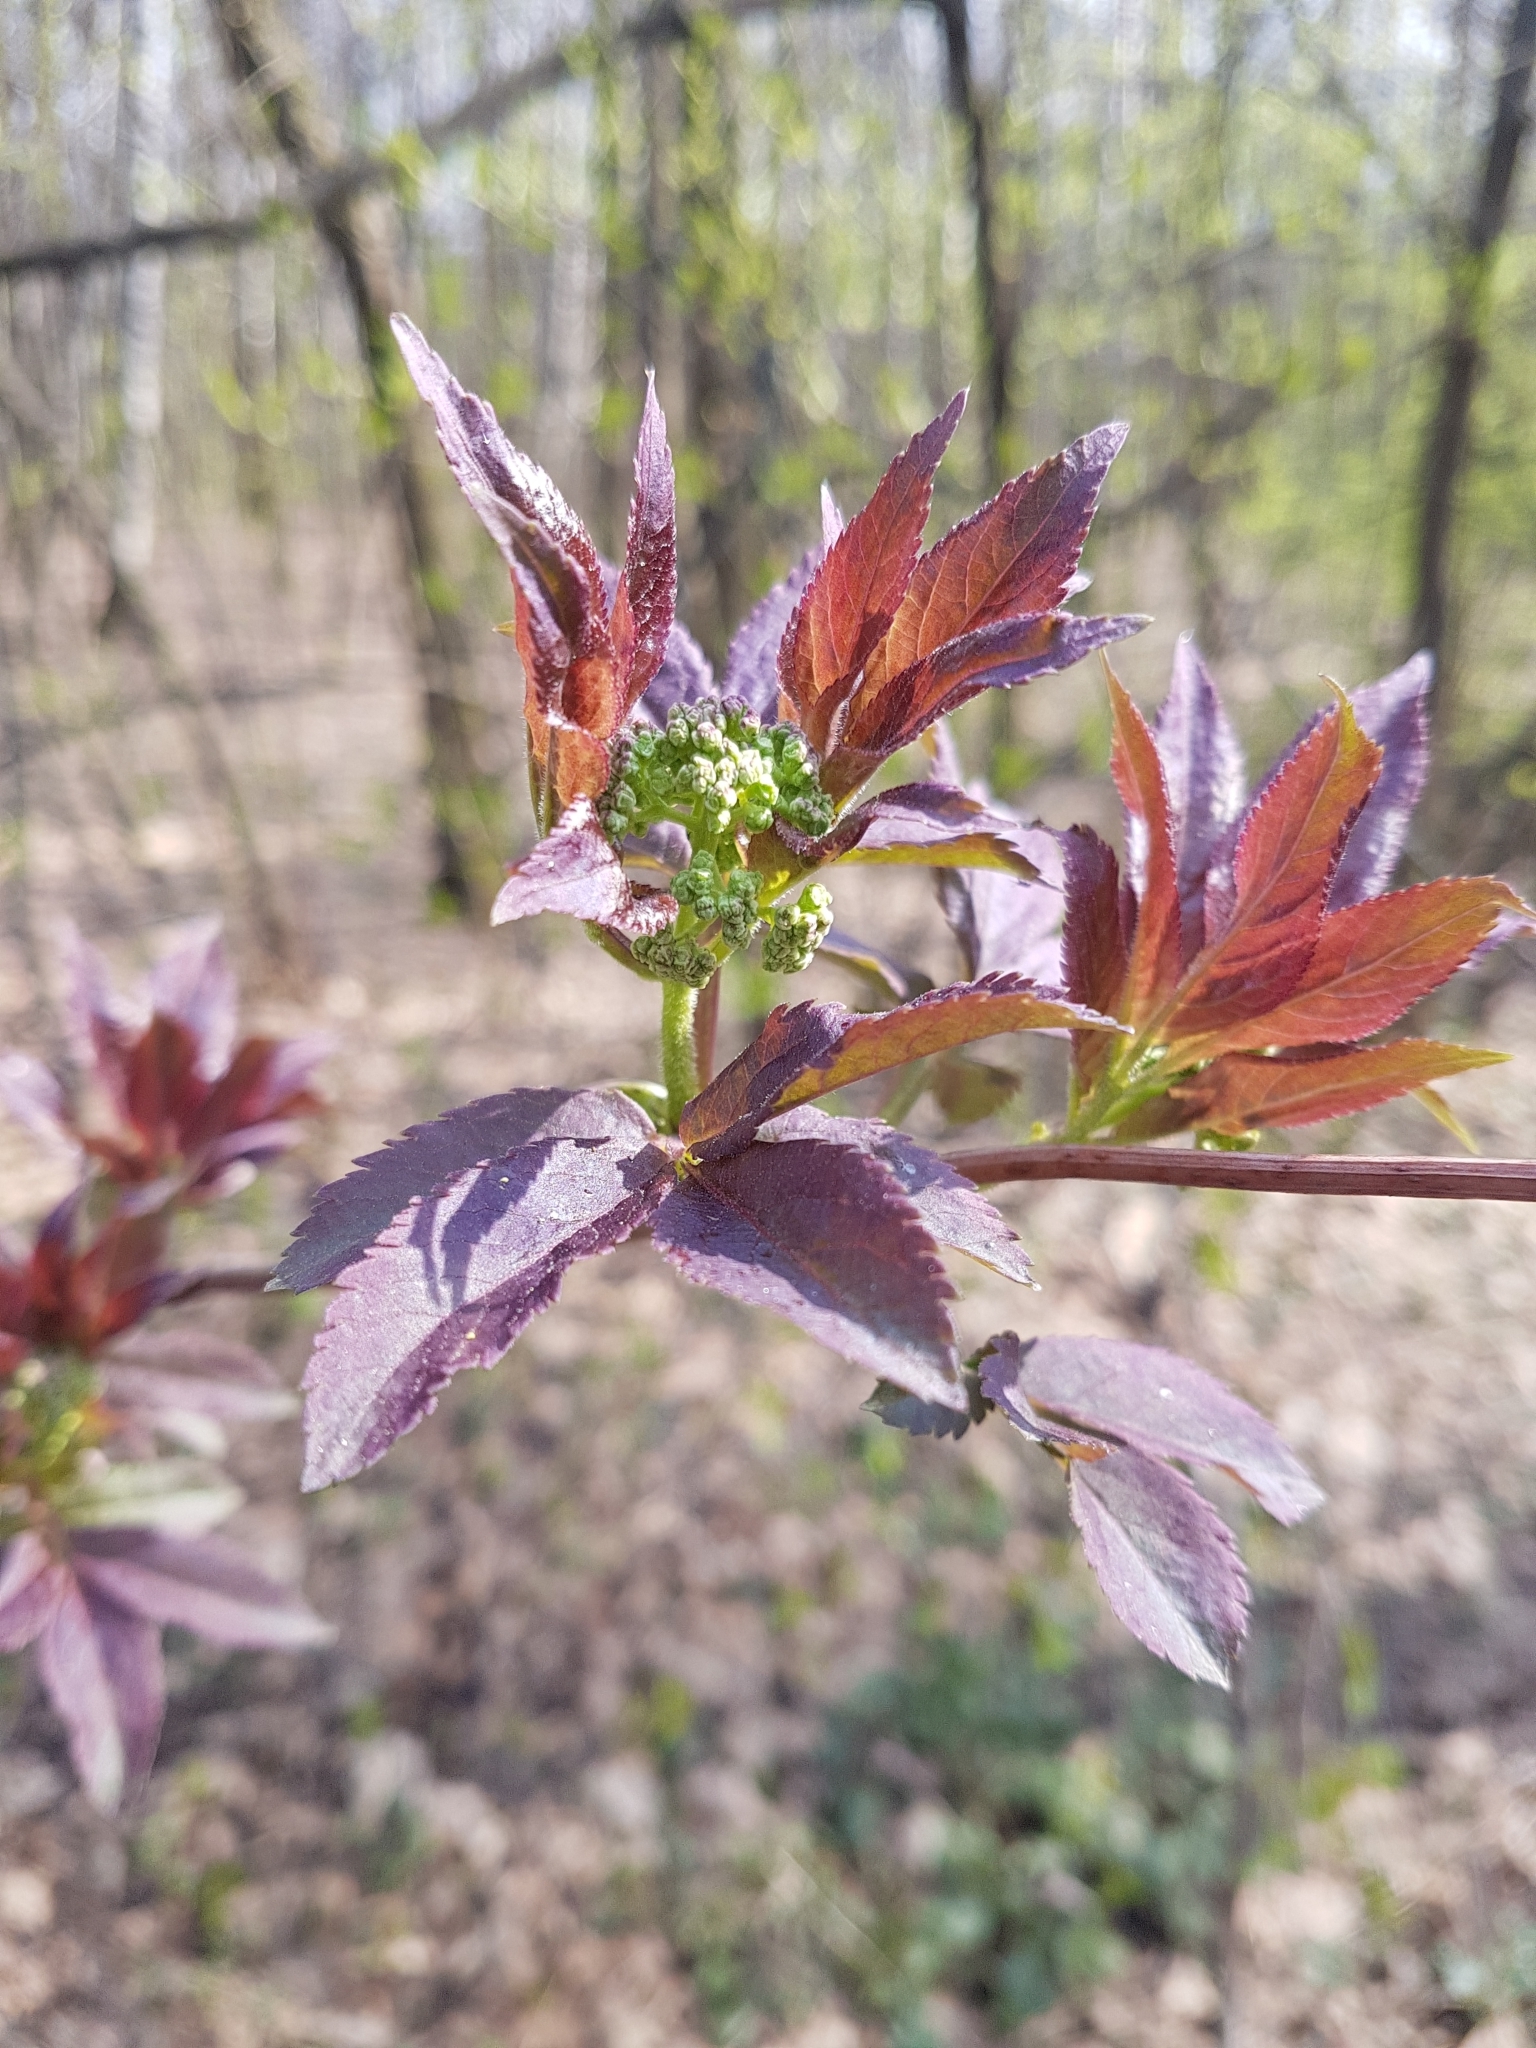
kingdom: Plantae
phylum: Tracheophyta
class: Magnoliopsida
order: Dipsacales
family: Viburnaceae
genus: Sambucus
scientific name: Sambucus racemosa
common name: Red-berried elder
